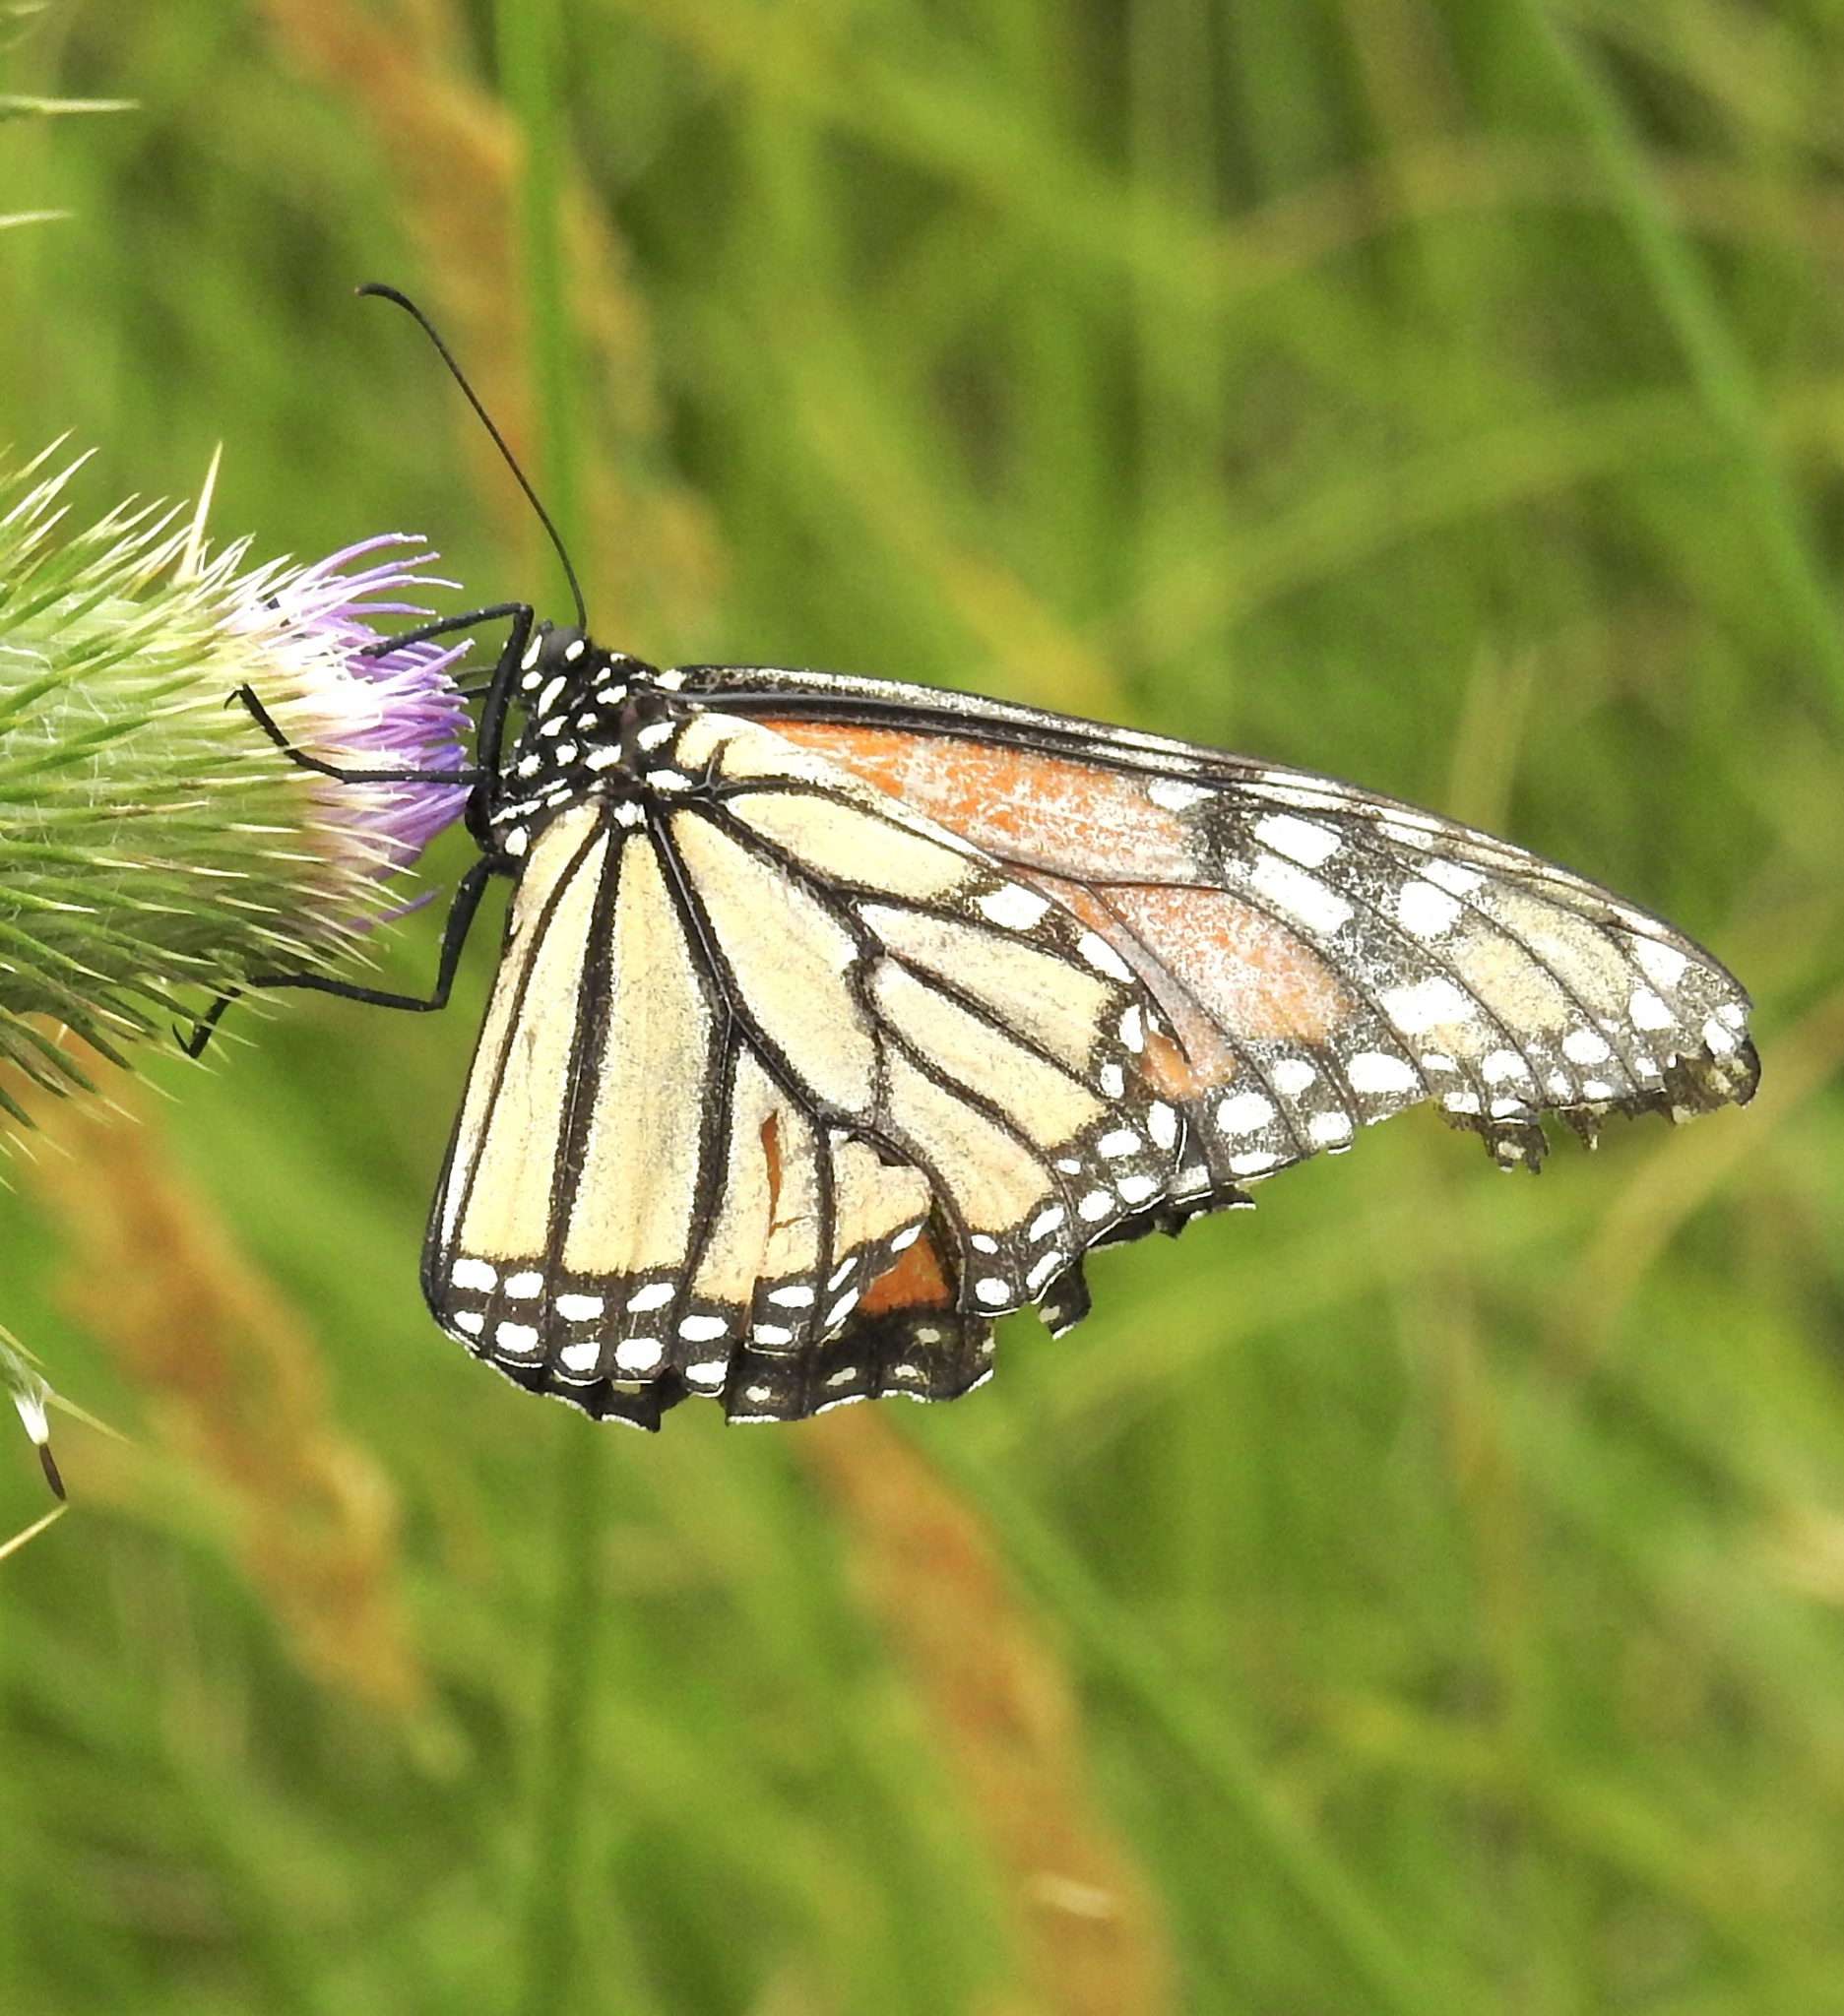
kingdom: Animalia
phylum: Arthropoda
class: Insecta
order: Lepidoptera
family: Nymphalidae
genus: Danaus
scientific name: Danaus plexippus
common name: Monarch
